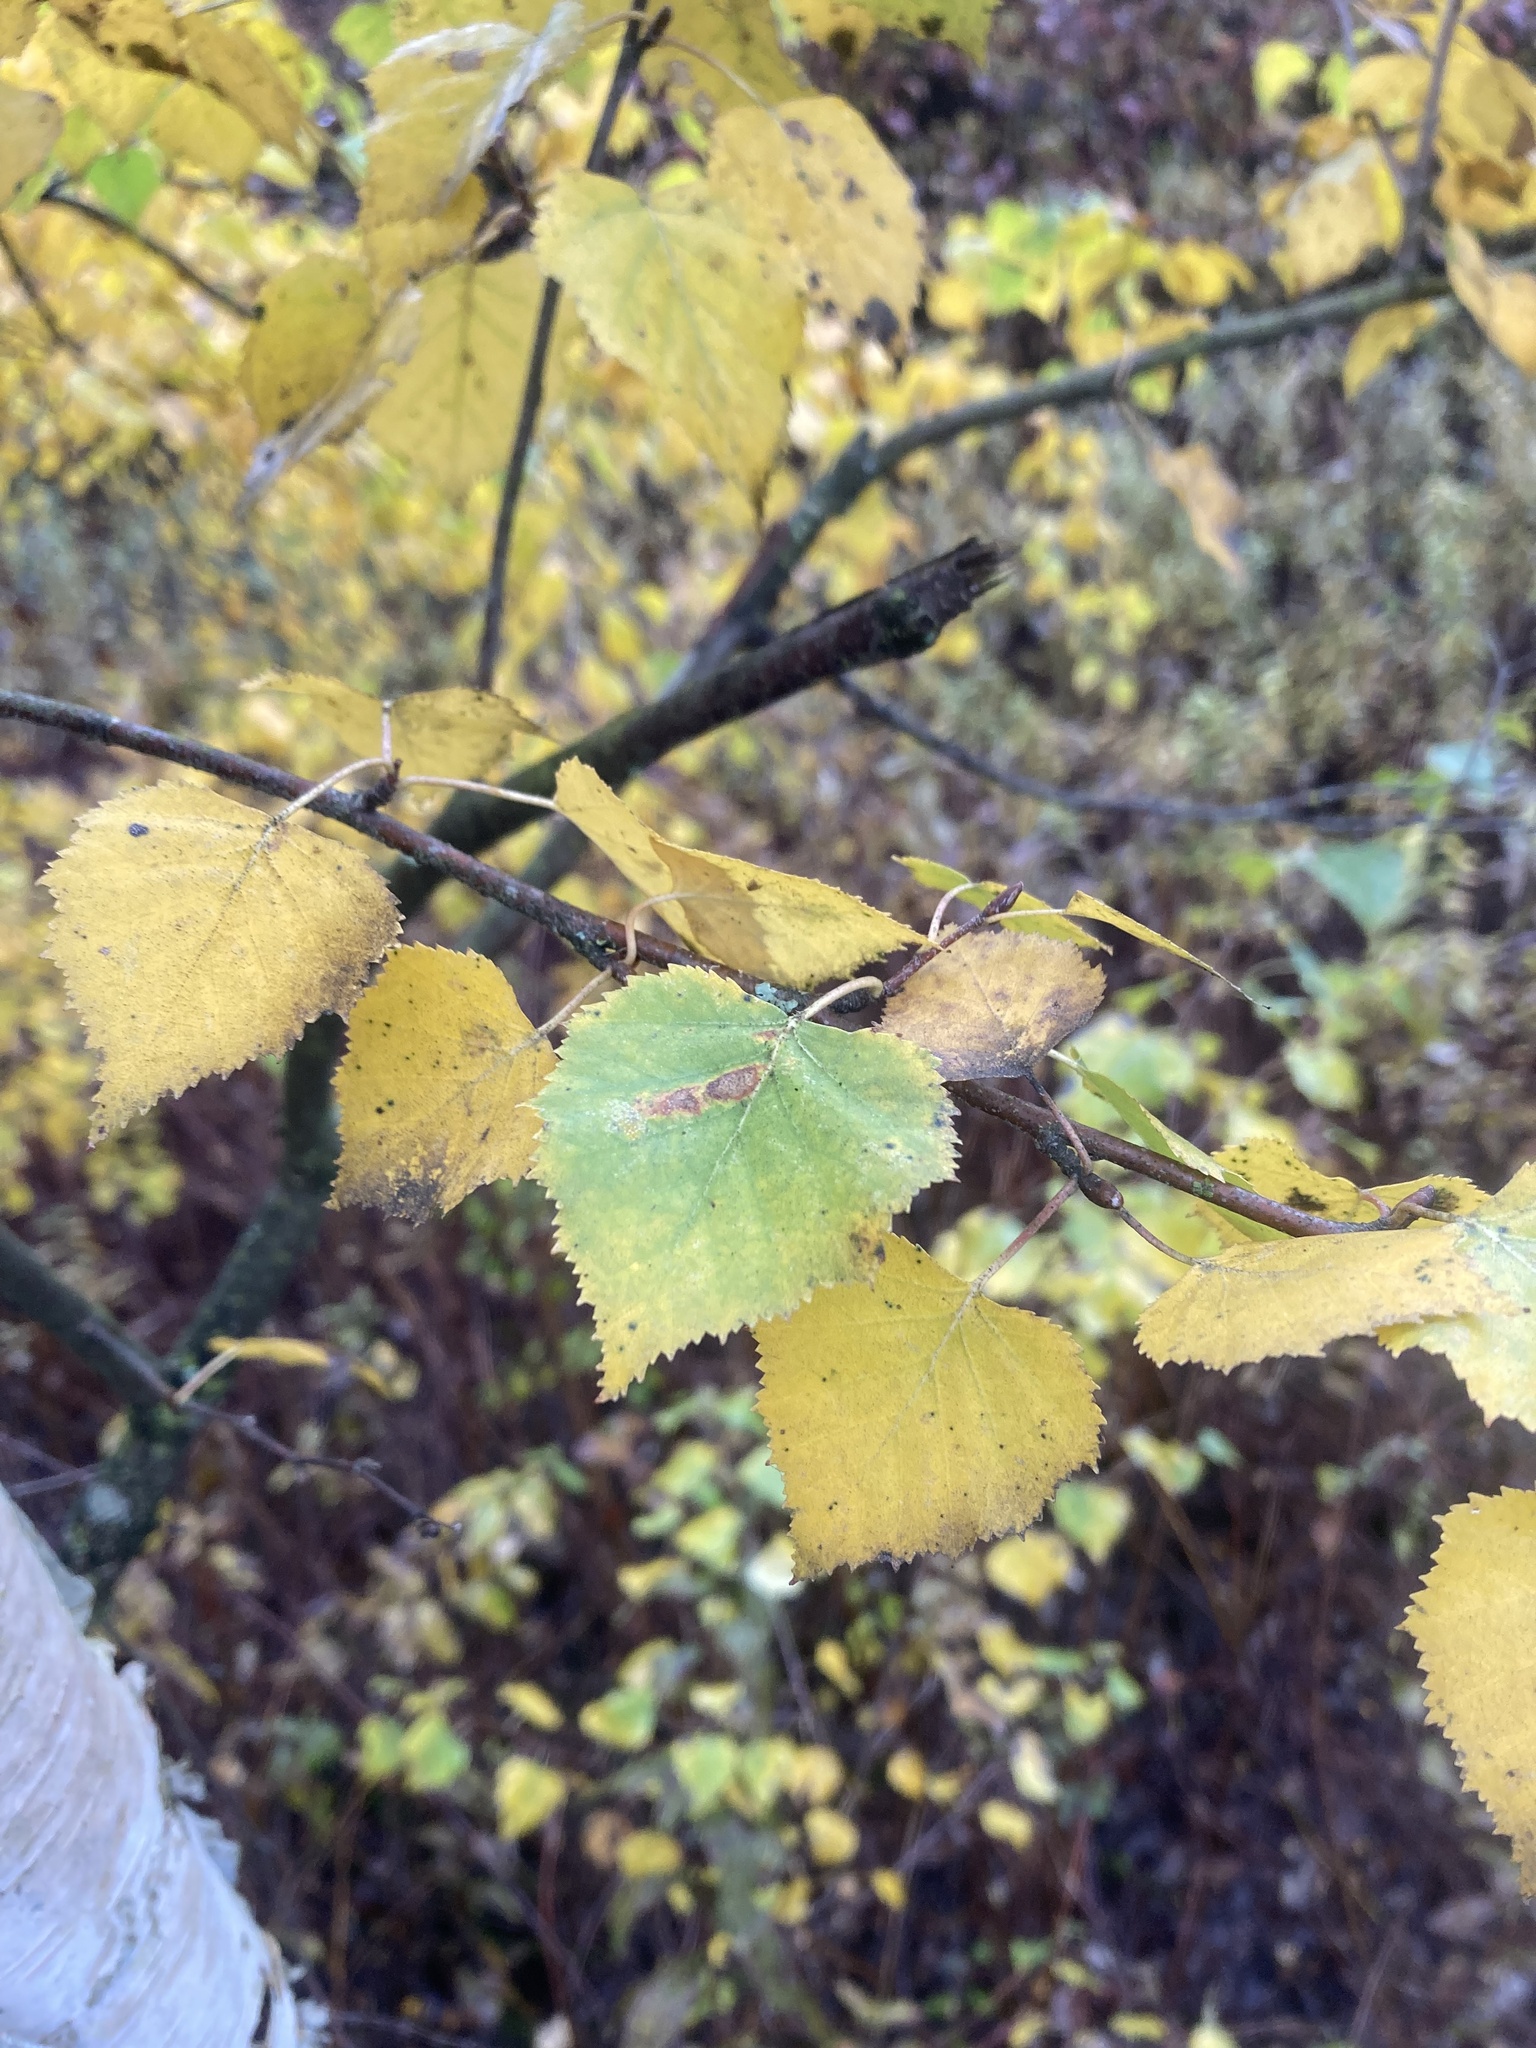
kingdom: Plantae
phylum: Tracheophyta
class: Magnoliopsida
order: Fagales
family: Betulaceae
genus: Betula
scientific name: Betula papyrifera
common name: Paper birch
